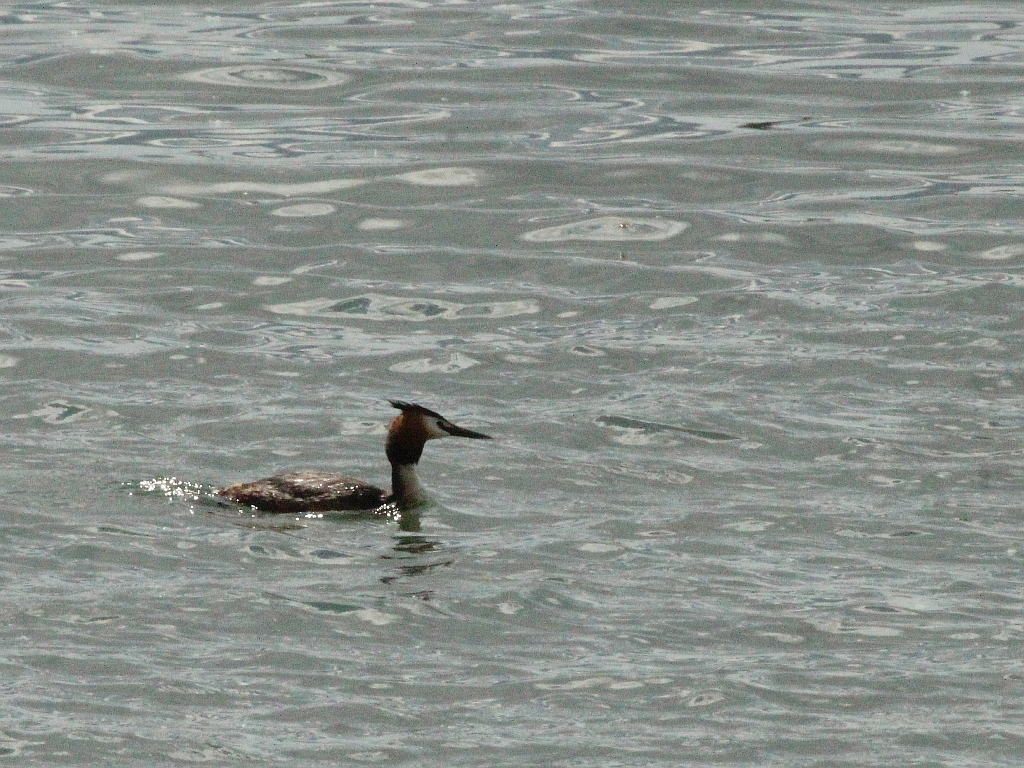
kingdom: Animalia
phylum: Chordata
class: Aves
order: Podicipediformes
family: Podicipedidae
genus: Podiceps
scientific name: Podiceps cristatus
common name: Great crested grebe
